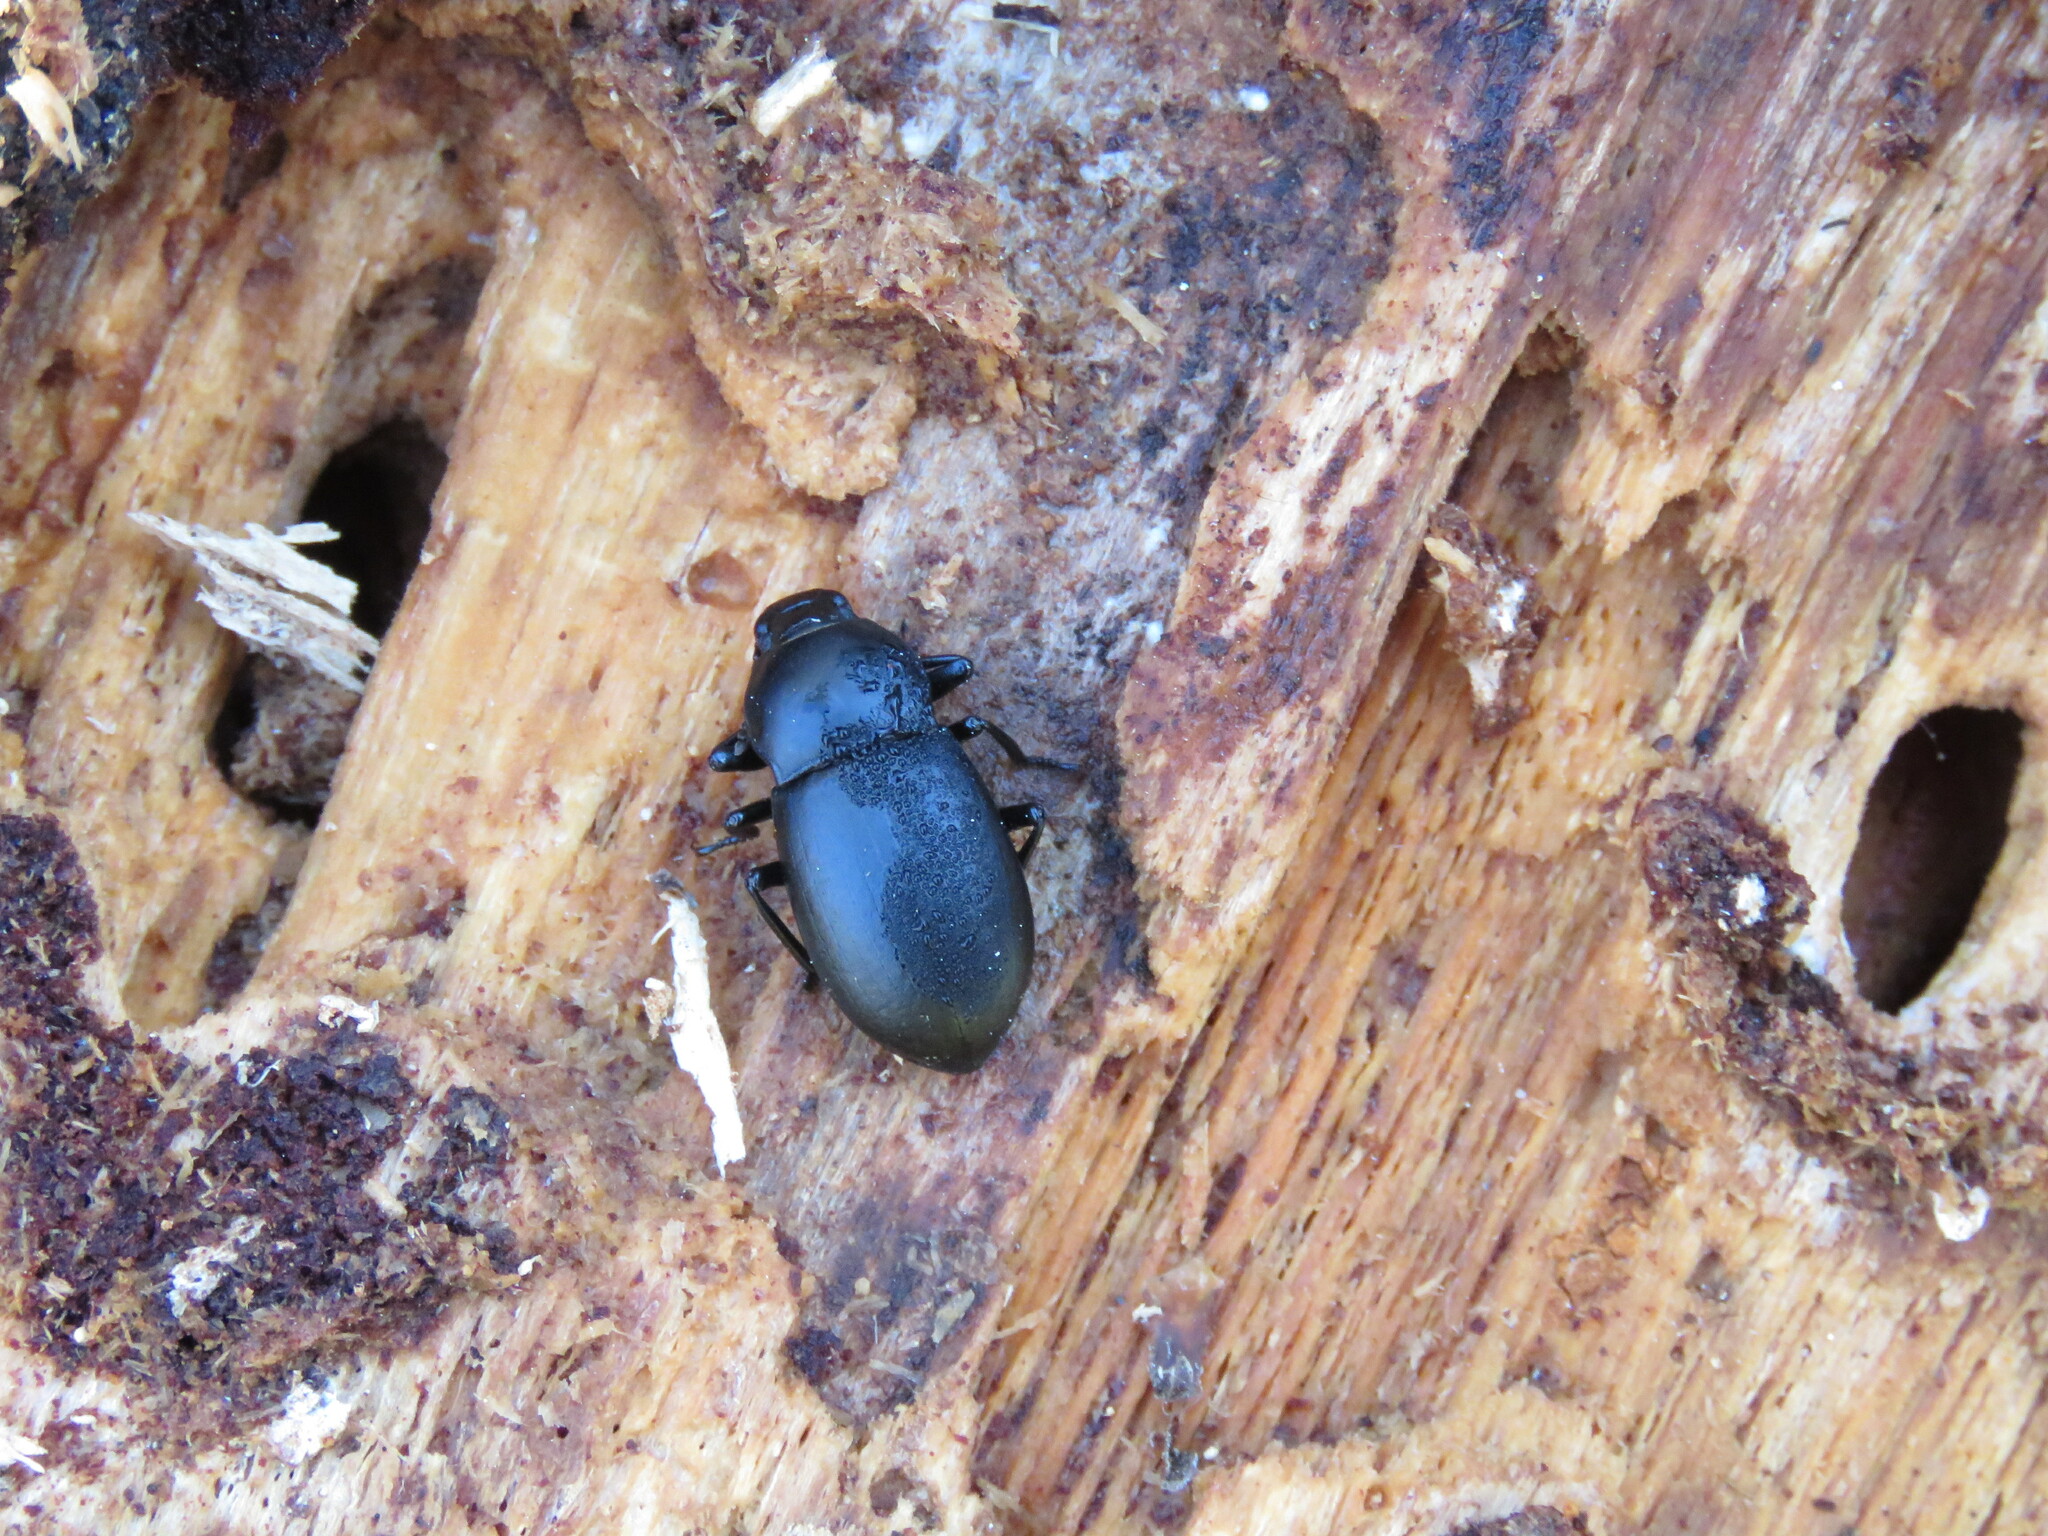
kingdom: Animalia
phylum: Arthropoda
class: Insecta
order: Coleoptera
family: Tenebrionidae
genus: Coelometopus
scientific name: Coelometopus clypeatus
